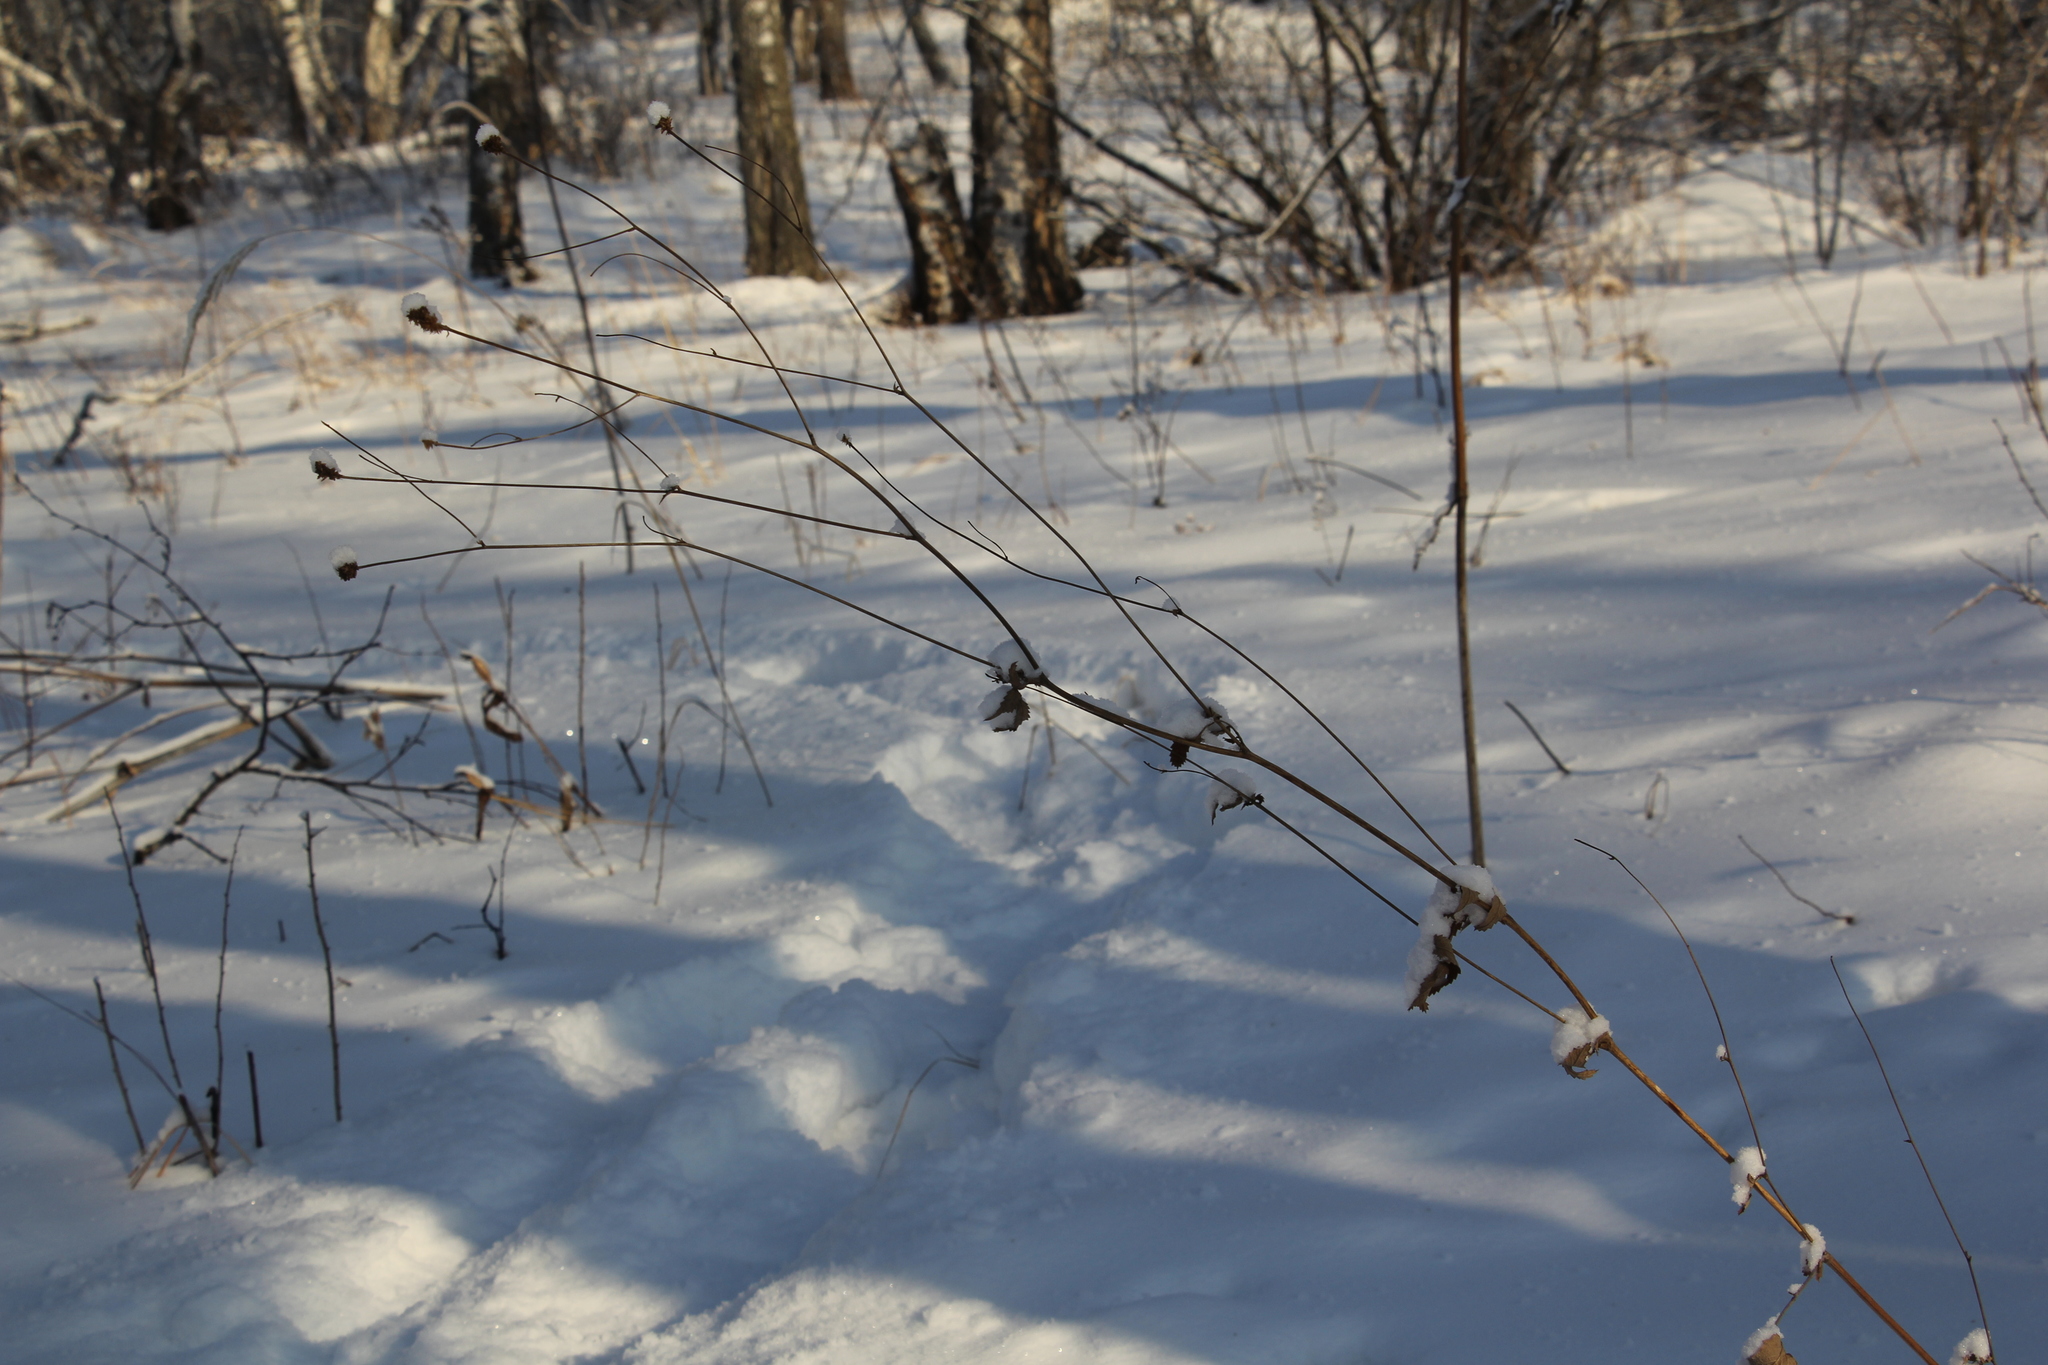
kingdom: Plantae
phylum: Tracheophyta
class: Magnoliopsida
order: Rosales
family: Rosaceae
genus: Sanguisorba
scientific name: Sanguisorba officinalis
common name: Great burnet
